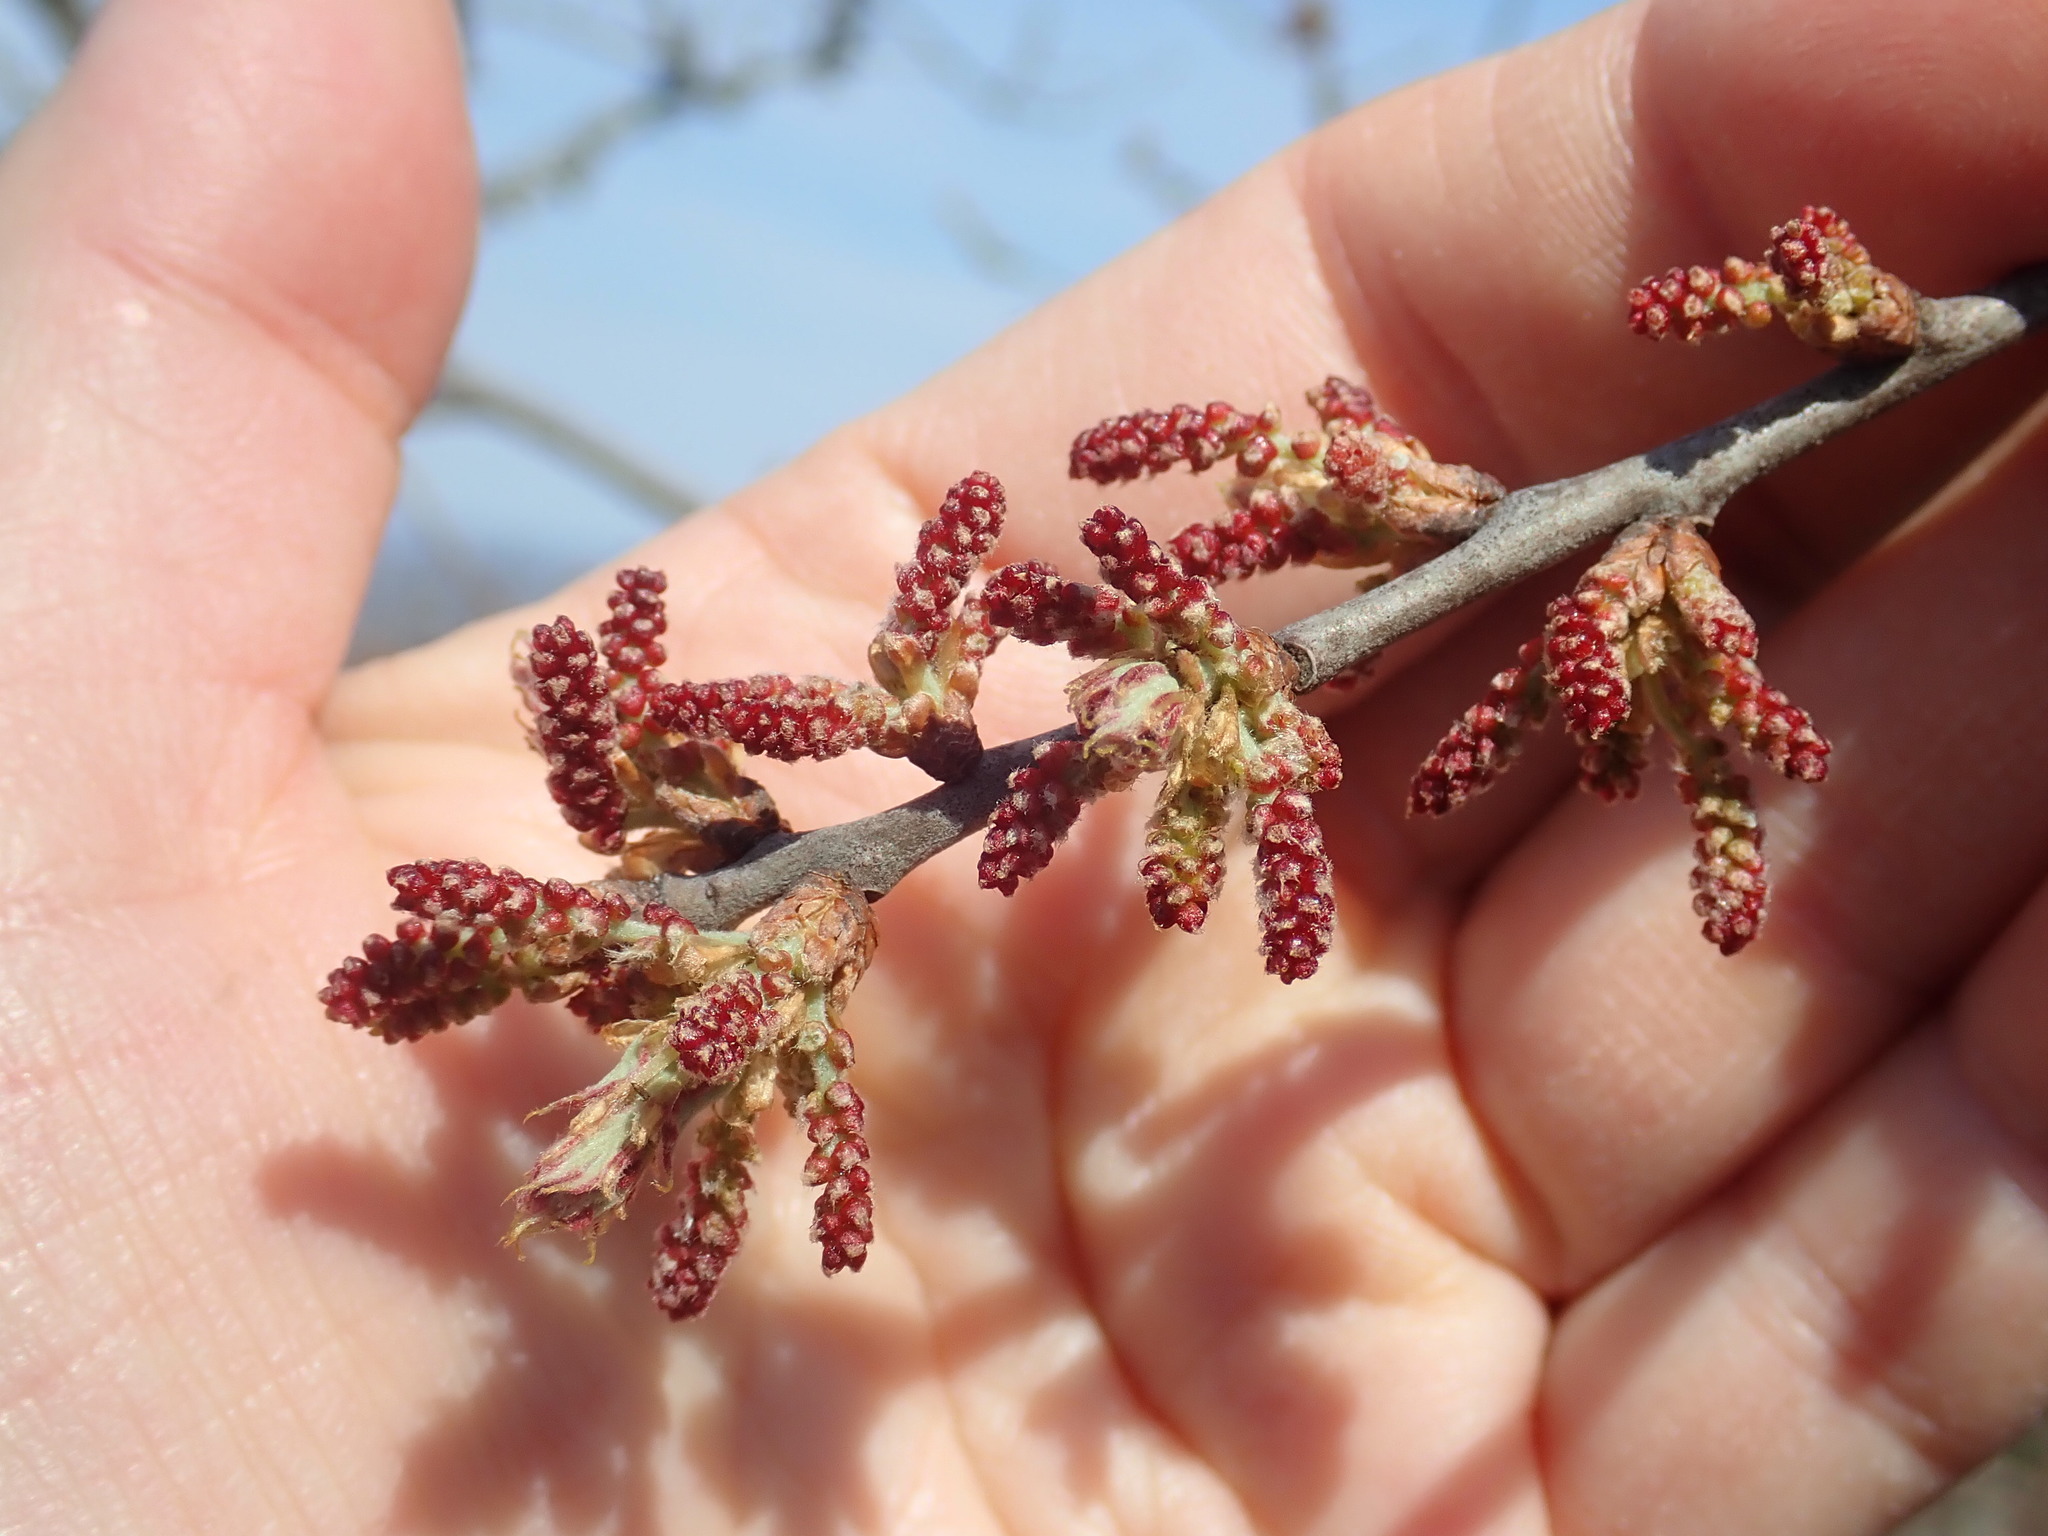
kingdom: Plantae
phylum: Tracheophyta
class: Magnoliopsida
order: Fagales
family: Fagaceae
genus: Quercus
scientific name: Quercus ilicifolia
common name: Bear oak
